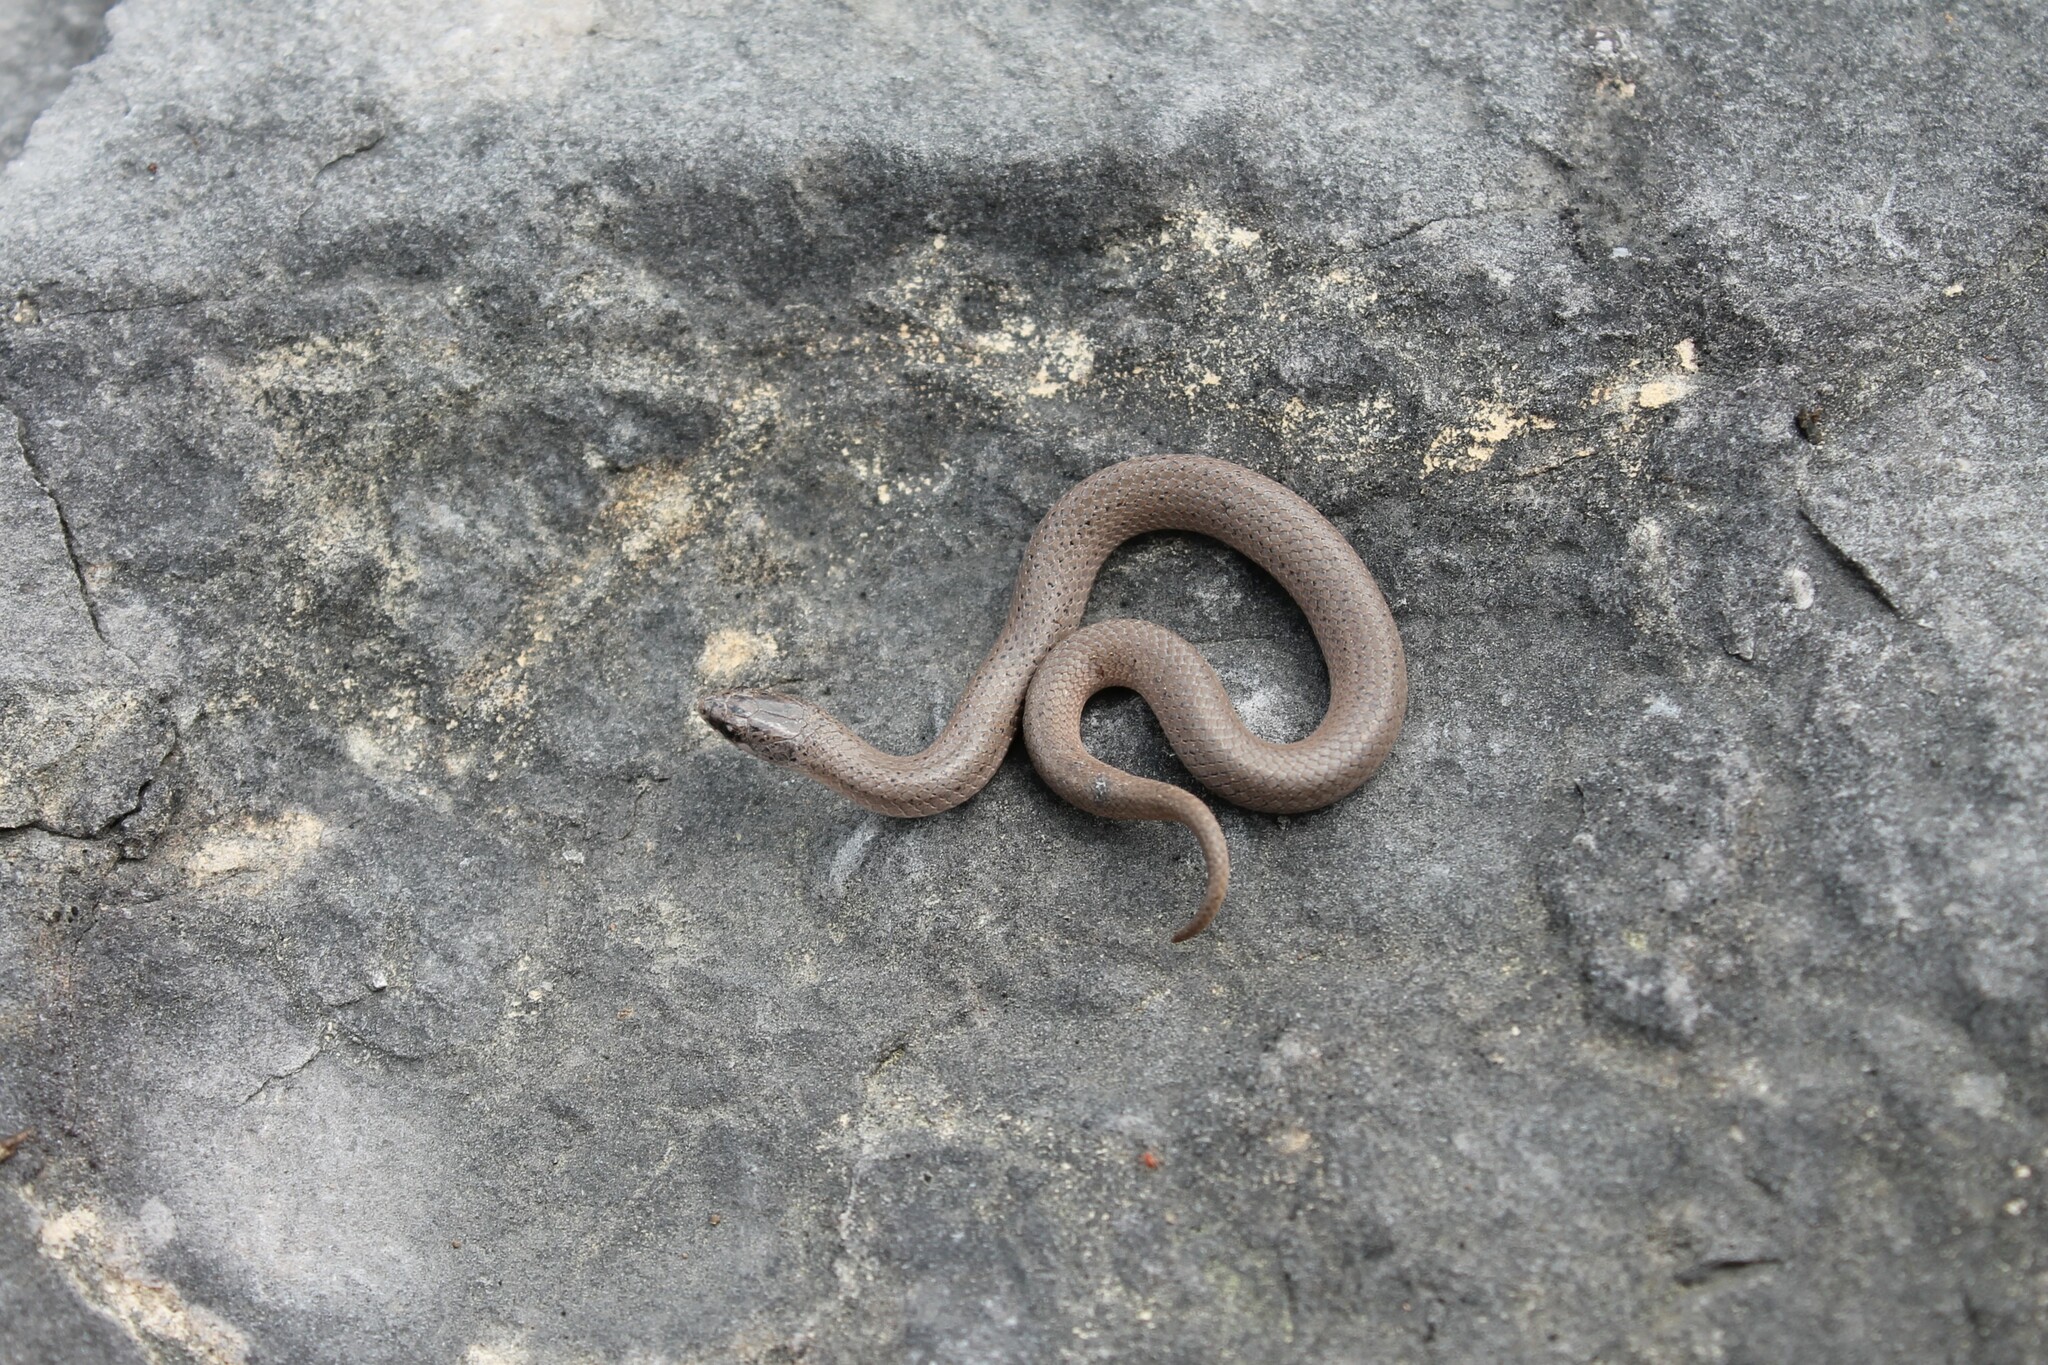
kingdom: Animalia
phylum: Chordata
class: Squamata
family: Colubridae
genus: Virginia
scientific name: Virginia valeriae
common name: Smooth earth snake
